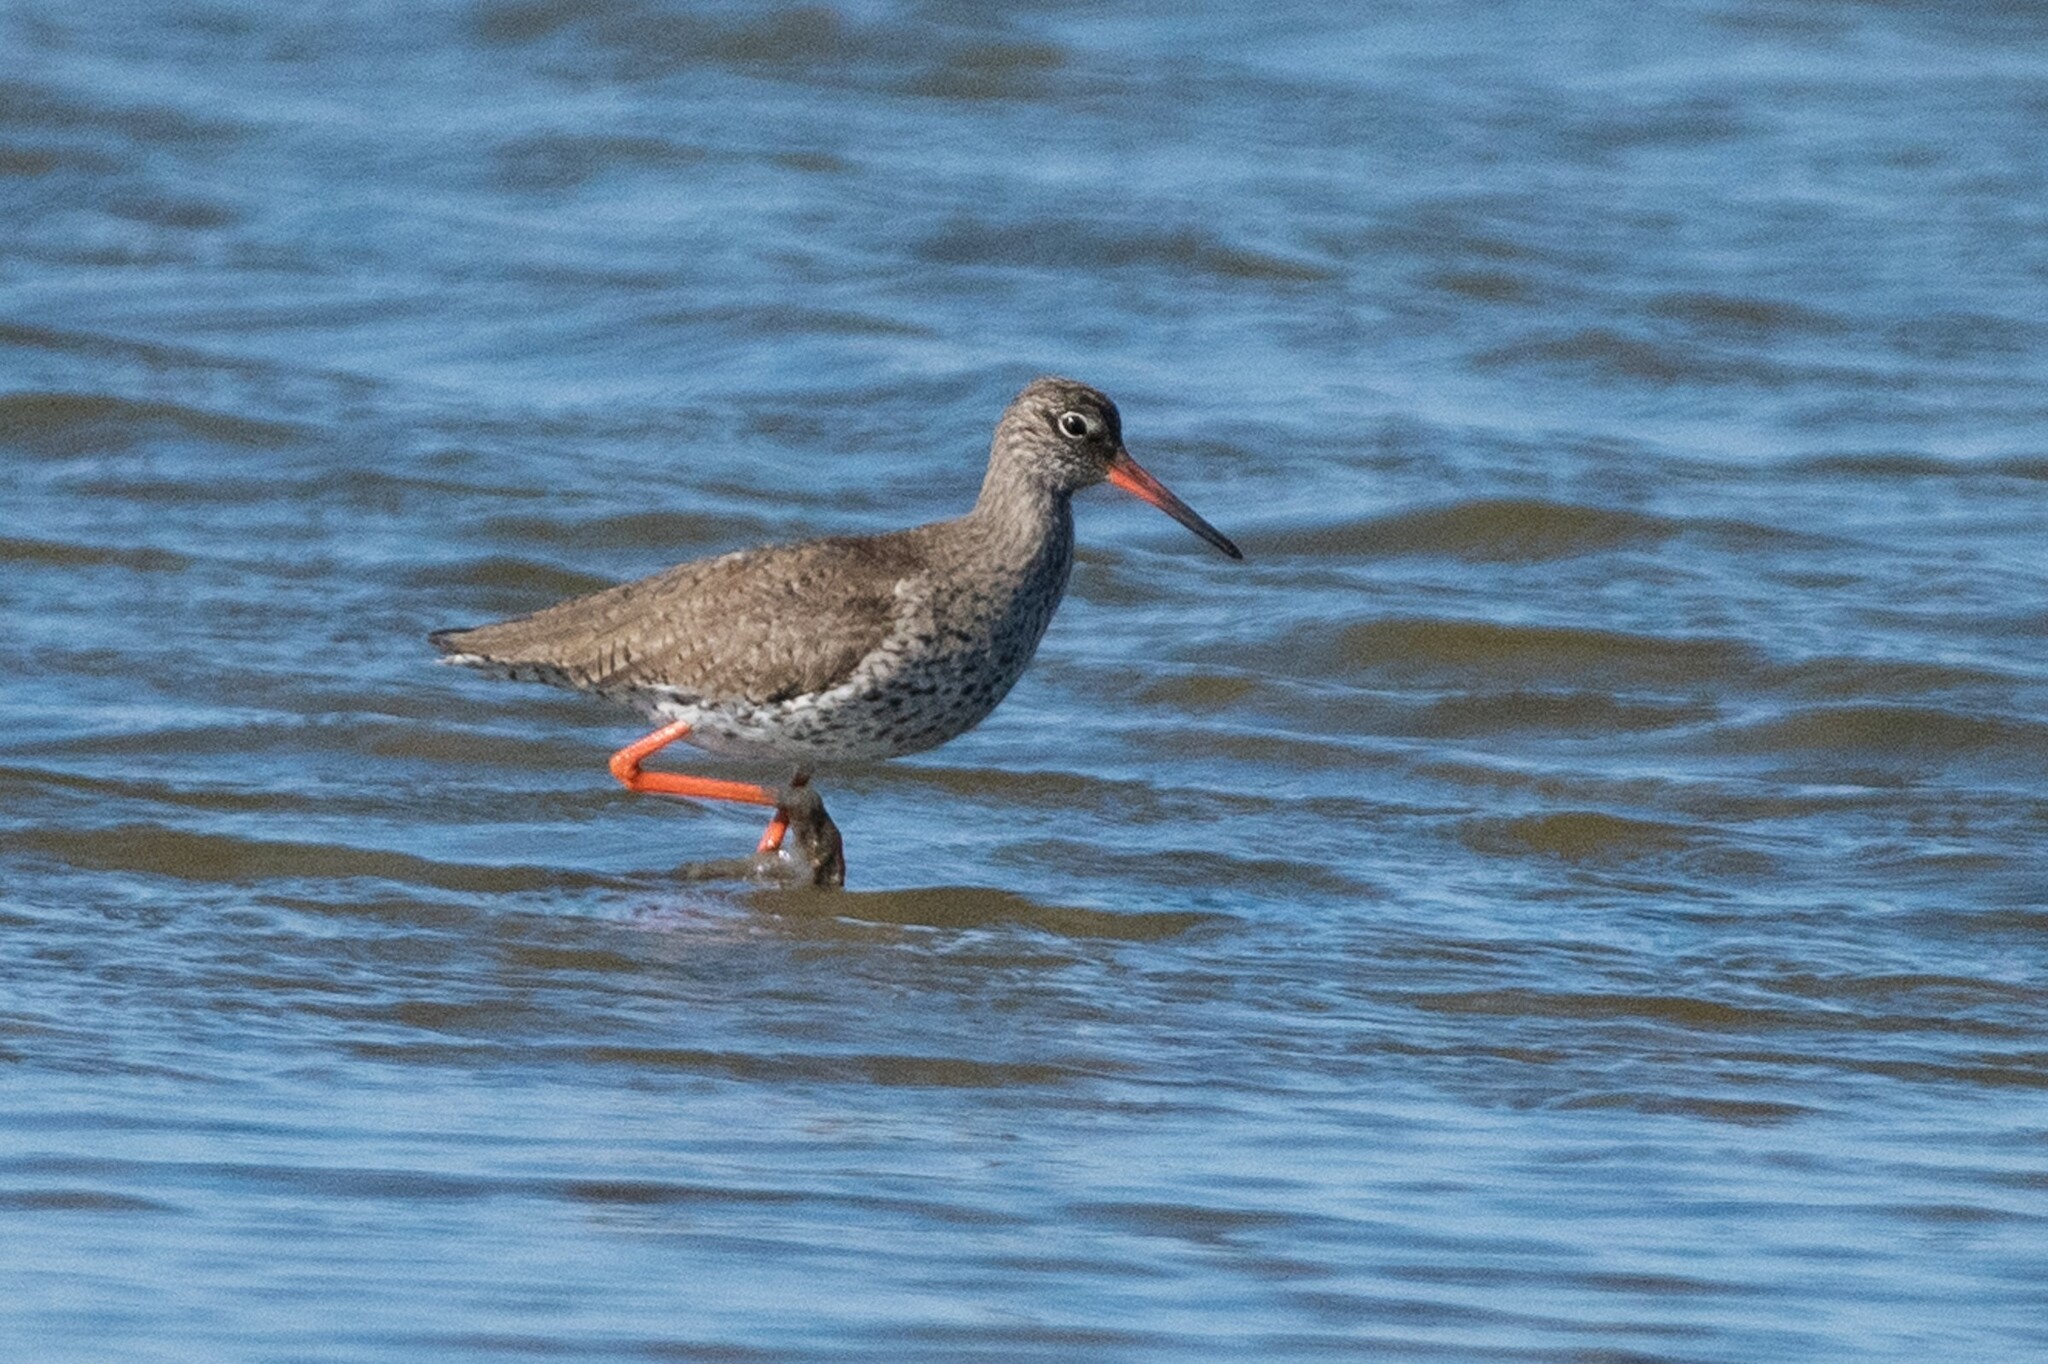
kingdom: Animalia
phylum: Chordata
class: Aves
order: Charadriiformes
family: Scolopacidae
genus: Tringa
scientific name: Tringa totanus
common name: Common redshank
